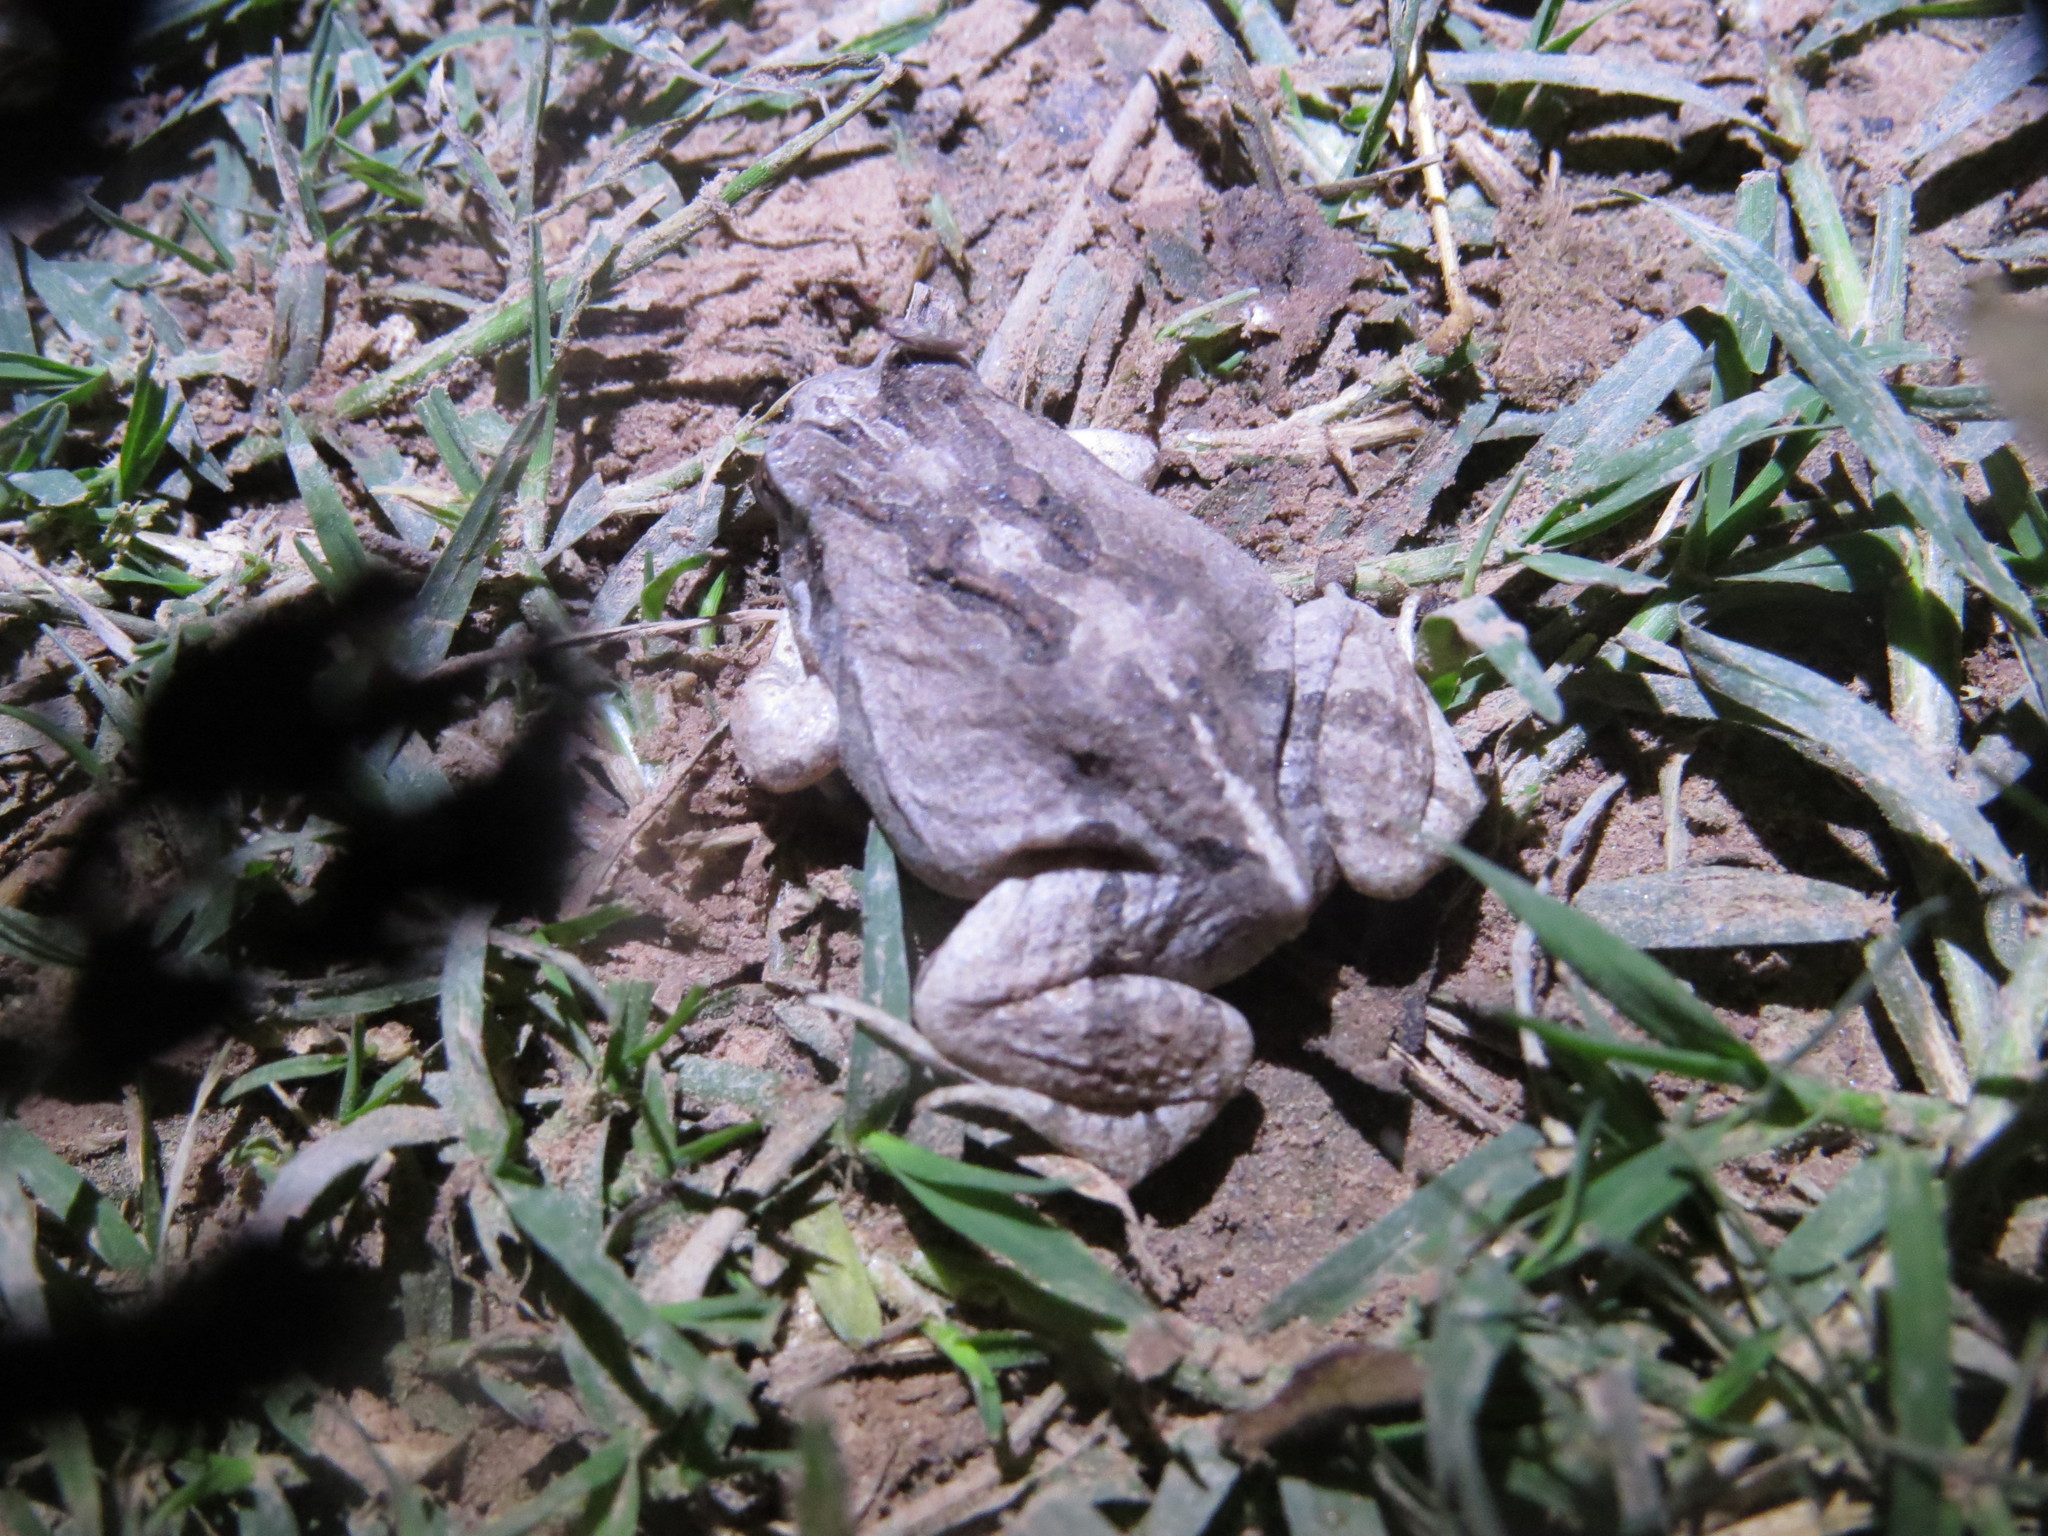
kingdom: Animalia
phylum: Chordata
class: Amphibia
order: Anura
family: Leptodactylidae
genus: Physalaemus
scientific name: Physalaemus albonotatus
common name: Menwig frog
